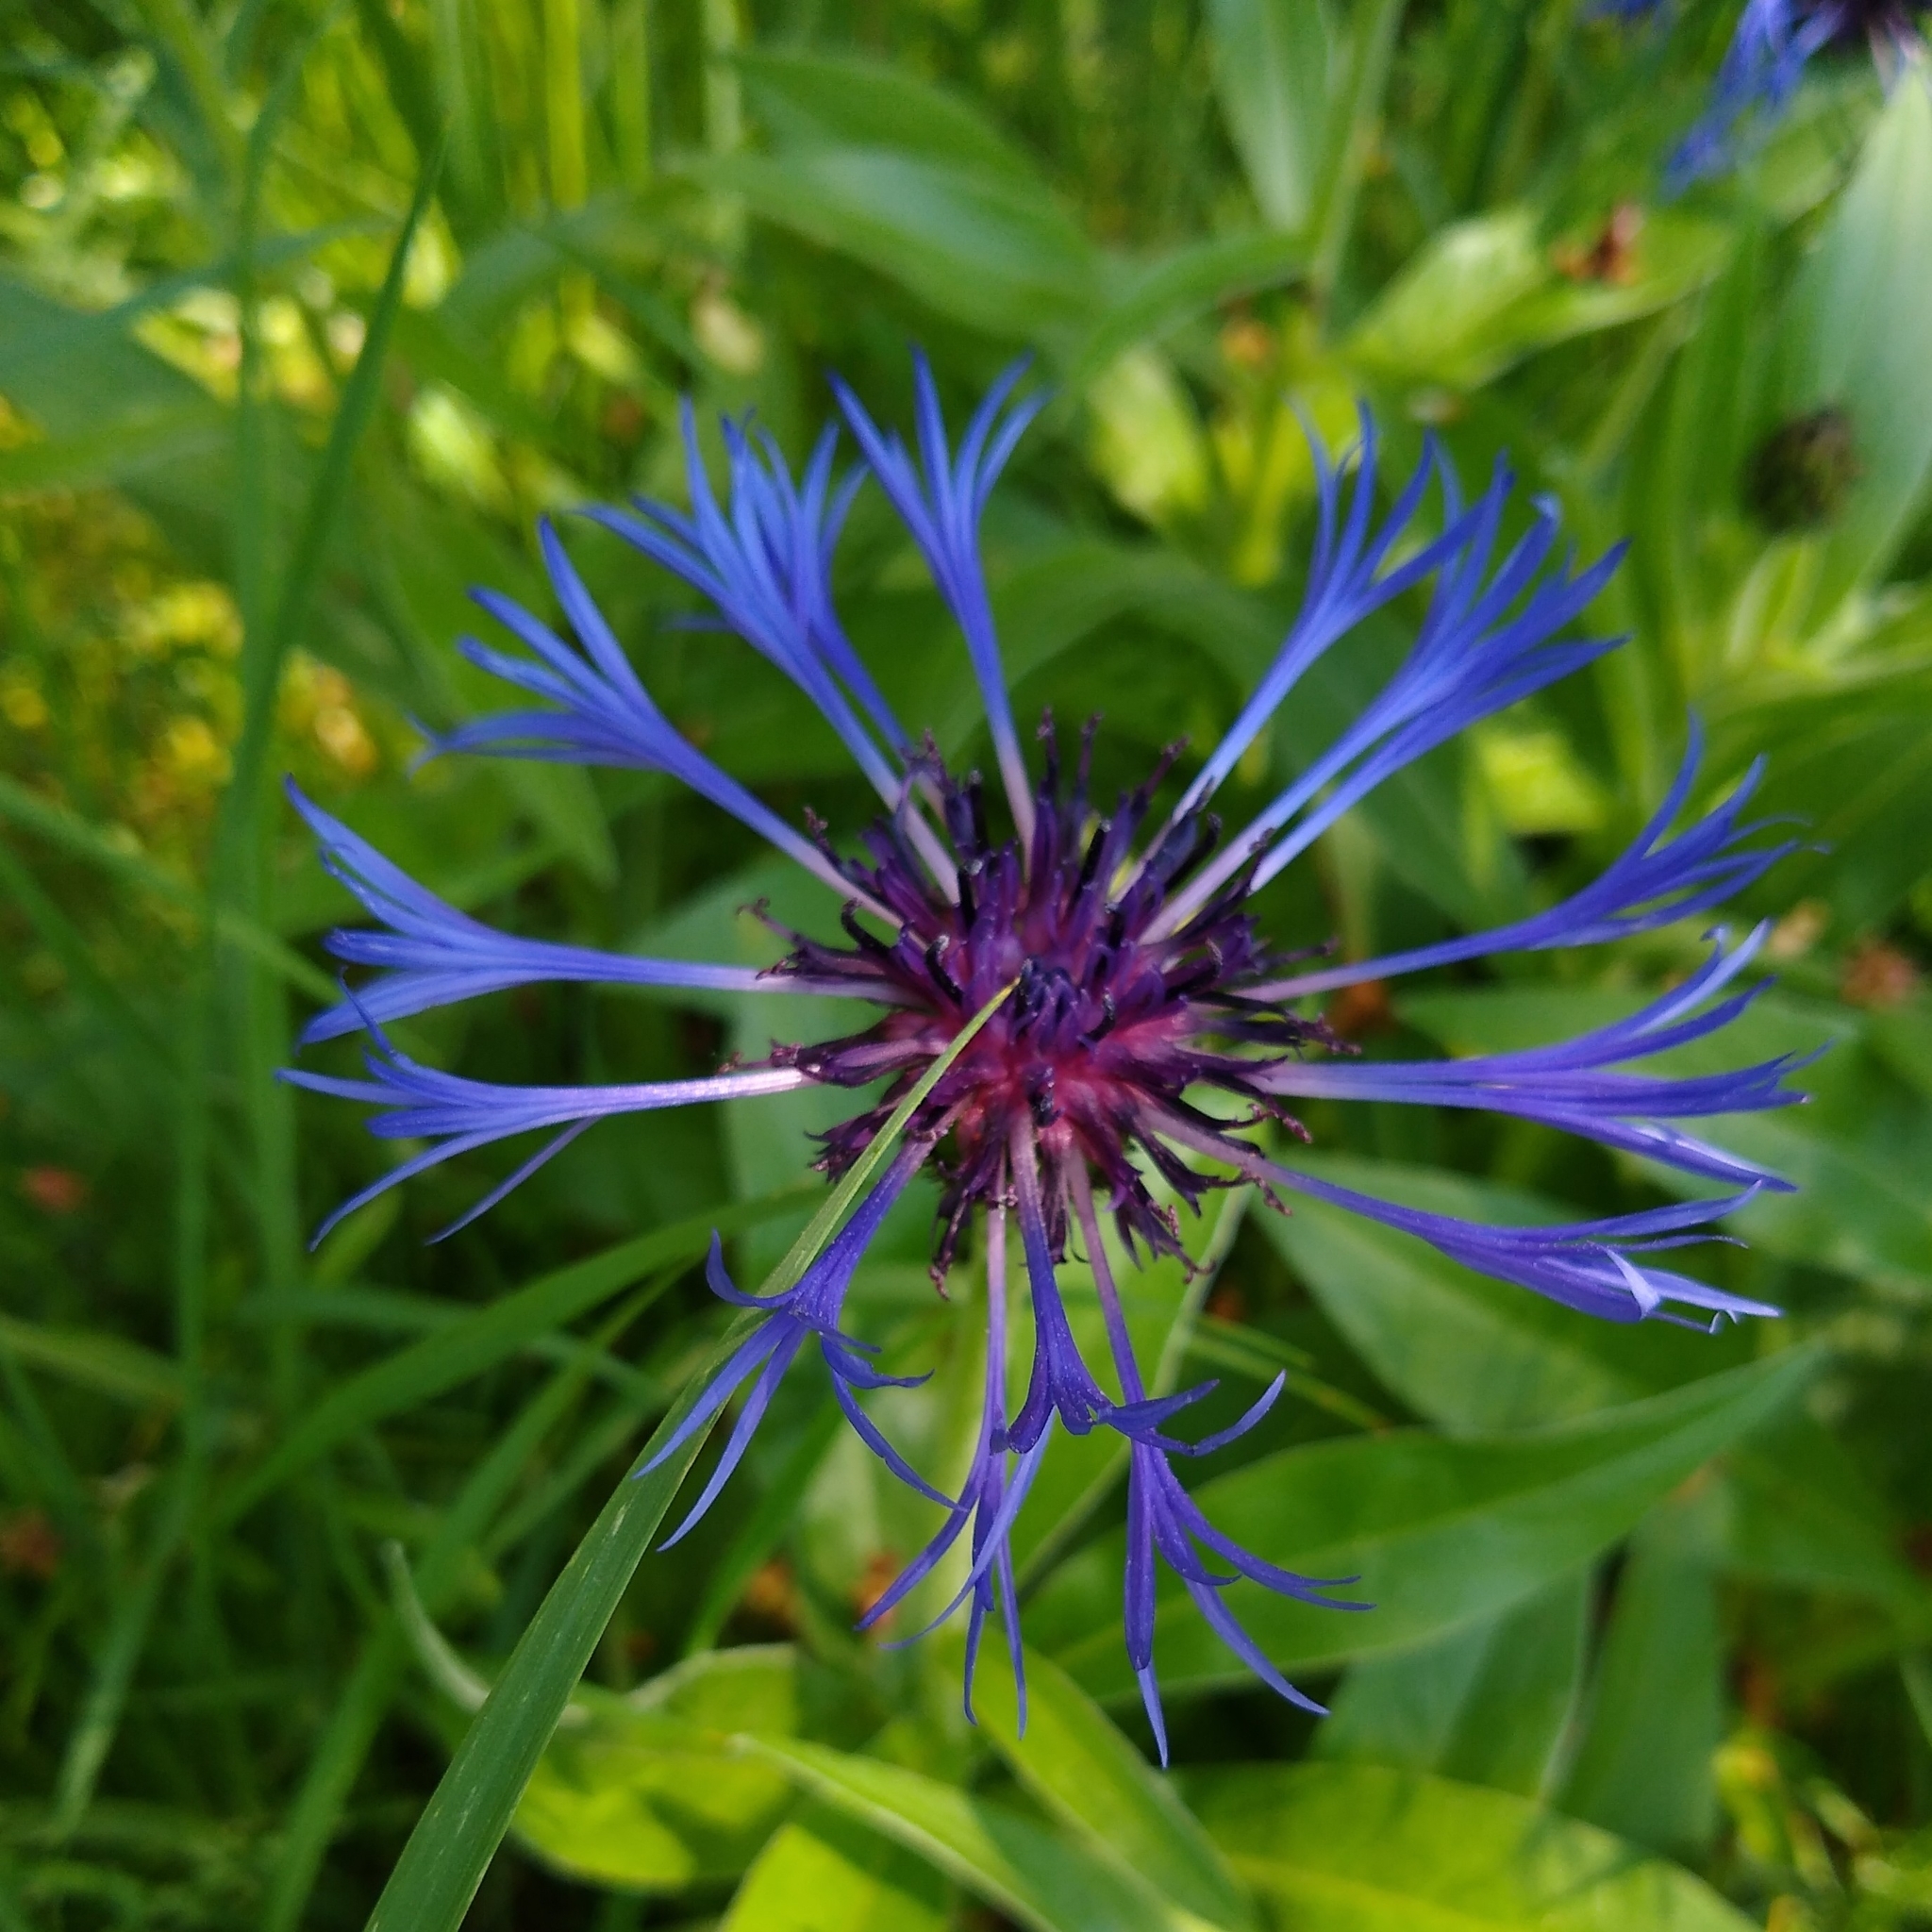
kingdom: Plantae
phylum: Tracheophyta
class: Magnoliopsida
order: Asterales
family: Asteraceae
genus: Centaurea
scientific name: Centaurea montana
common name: Perennial cornflower
